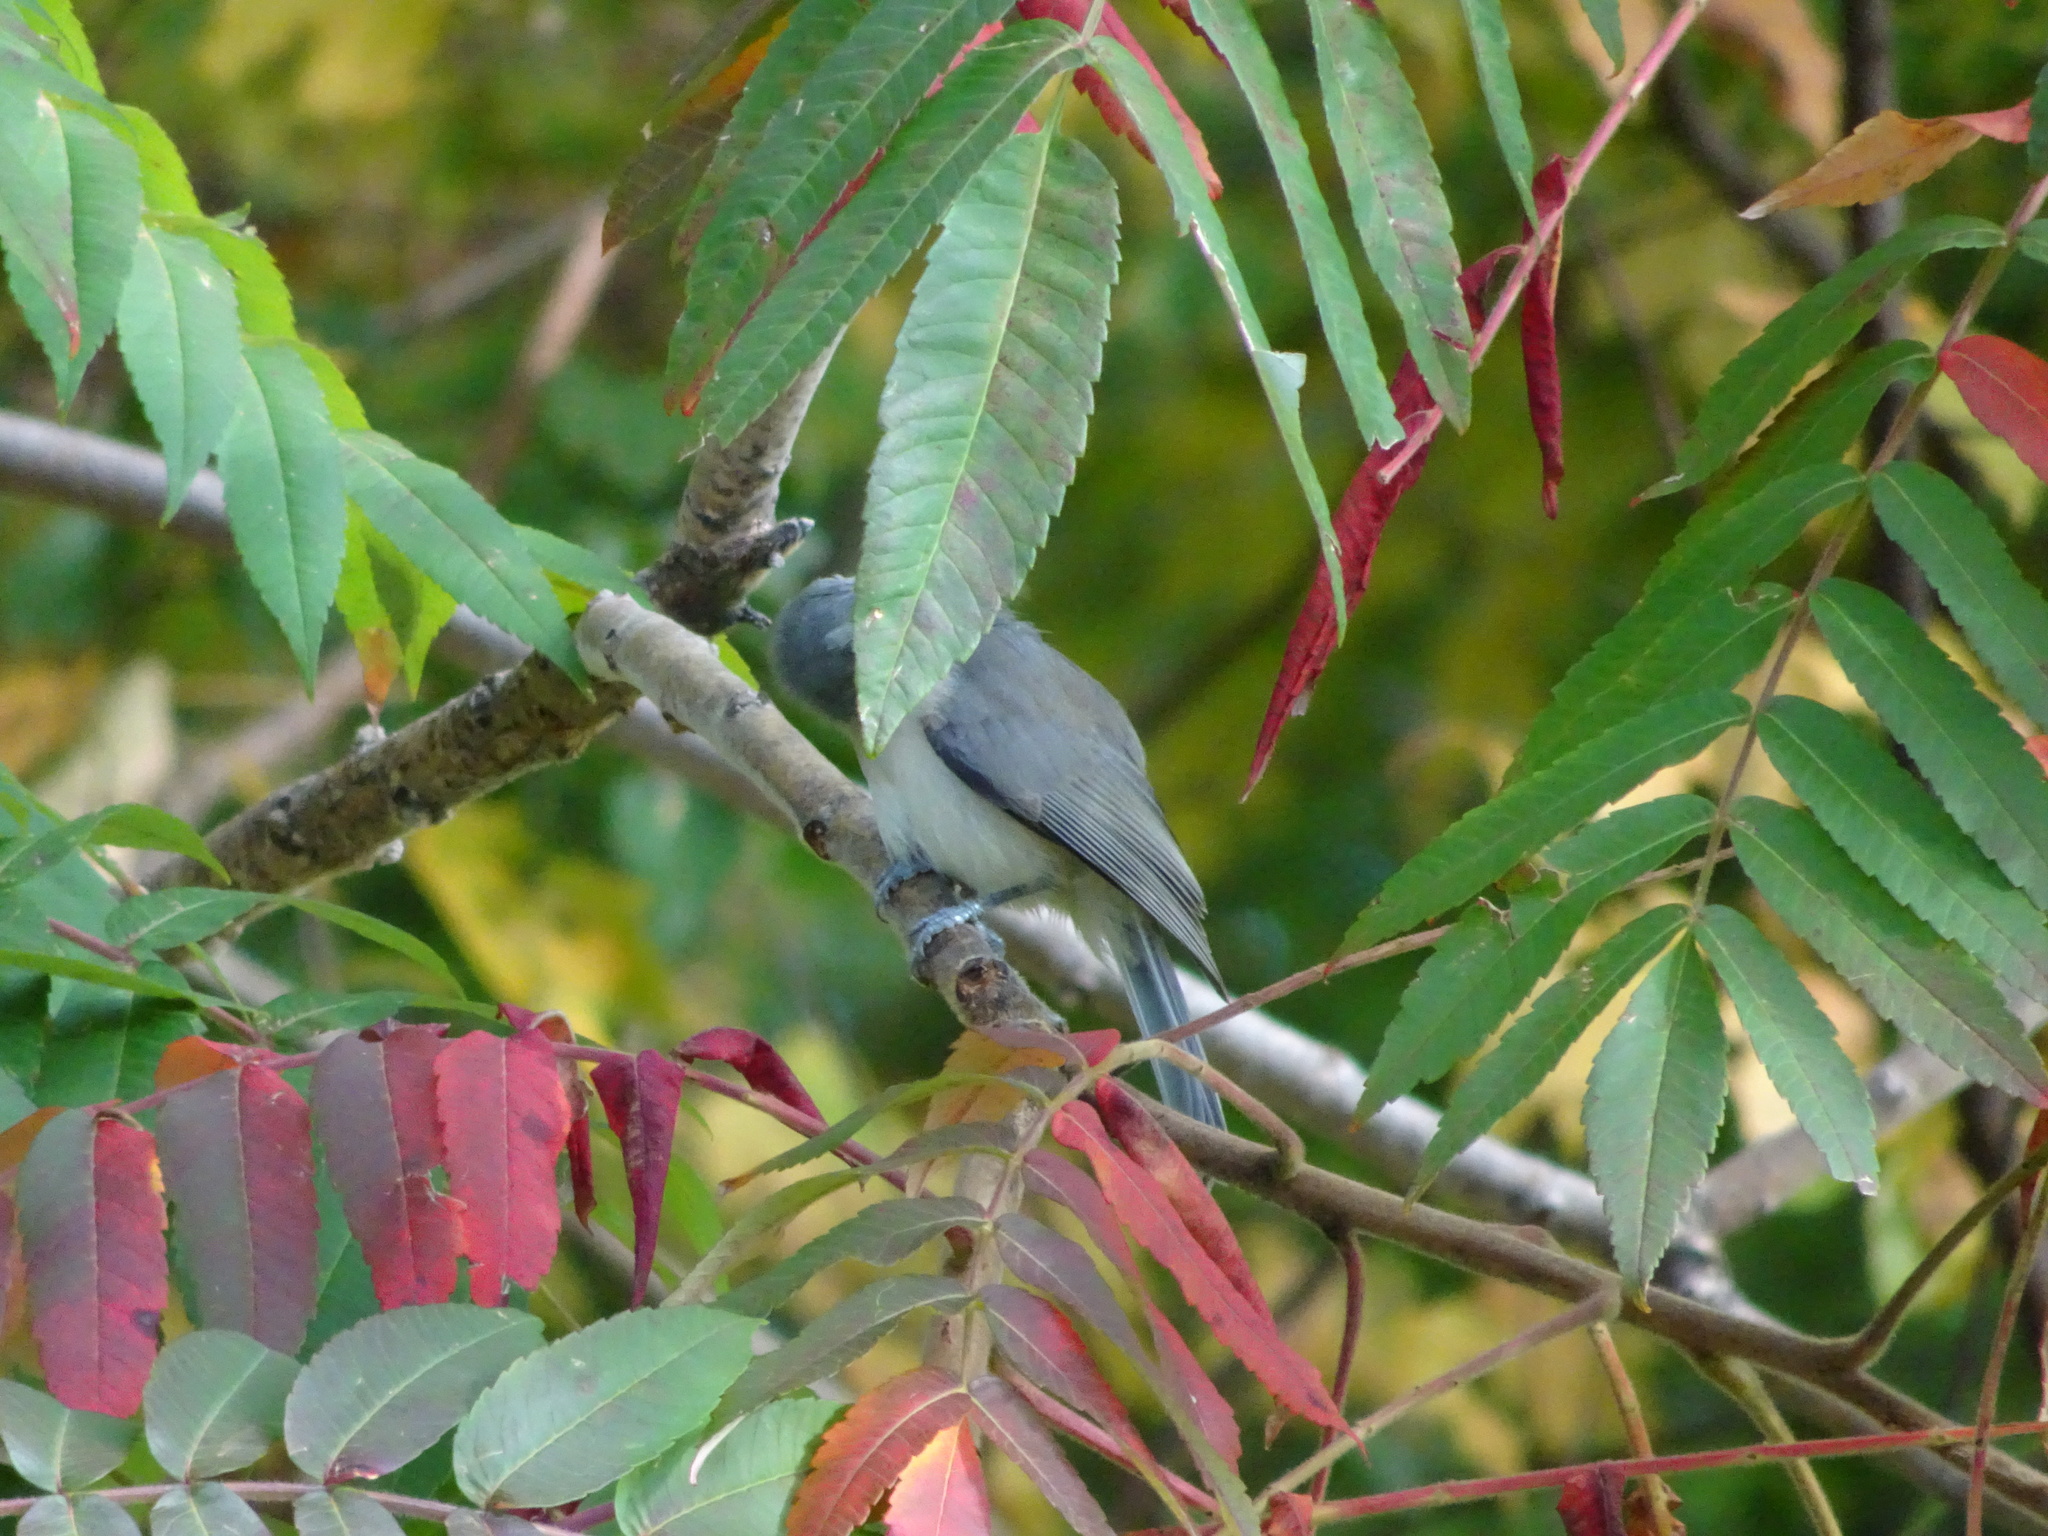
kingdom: Animalia
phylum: Chordata
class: Aves
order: Passeriformes
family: Paridae
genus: Baeolophus
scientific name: Baeolophus bicolor
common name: Tufted titmouse
